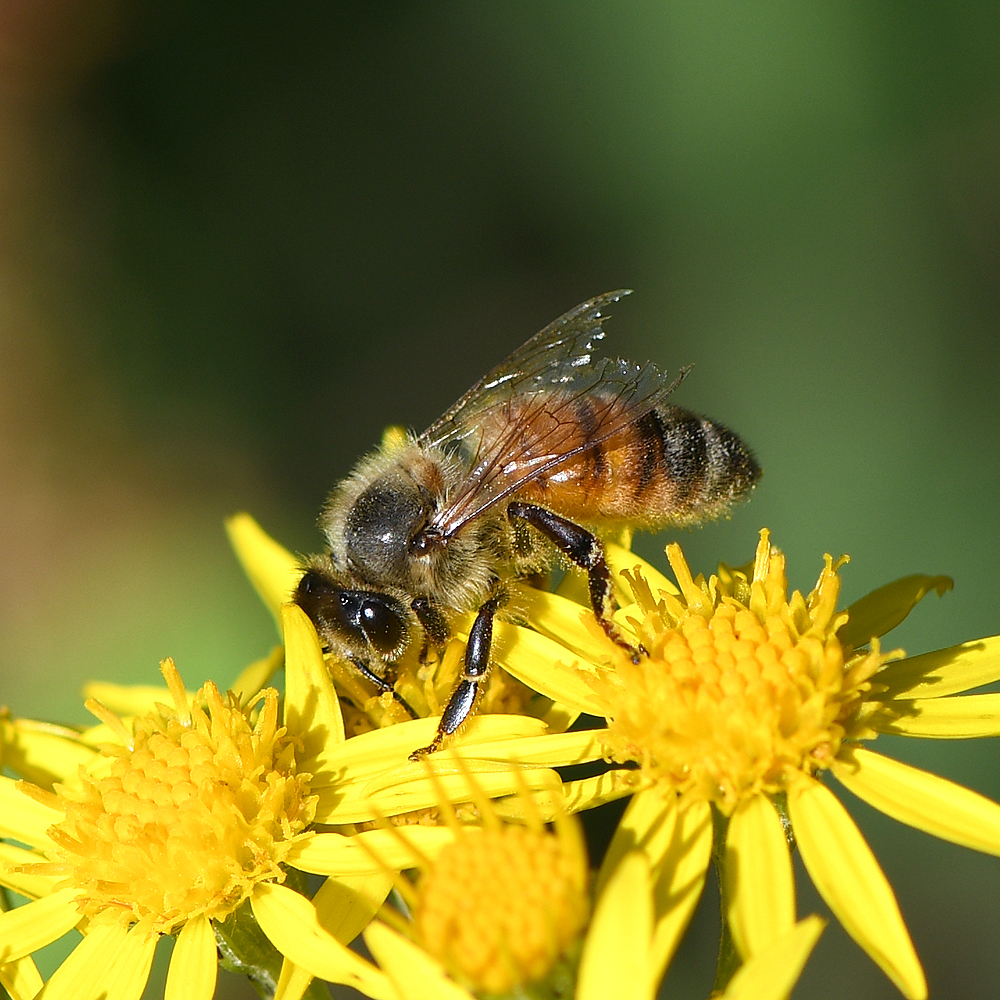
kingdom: Animalia
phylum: Arthropoda
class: Insecta
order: Hymenoptera
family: Apidae
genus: Apis
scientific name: Apis mellifera
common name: Honey bee
